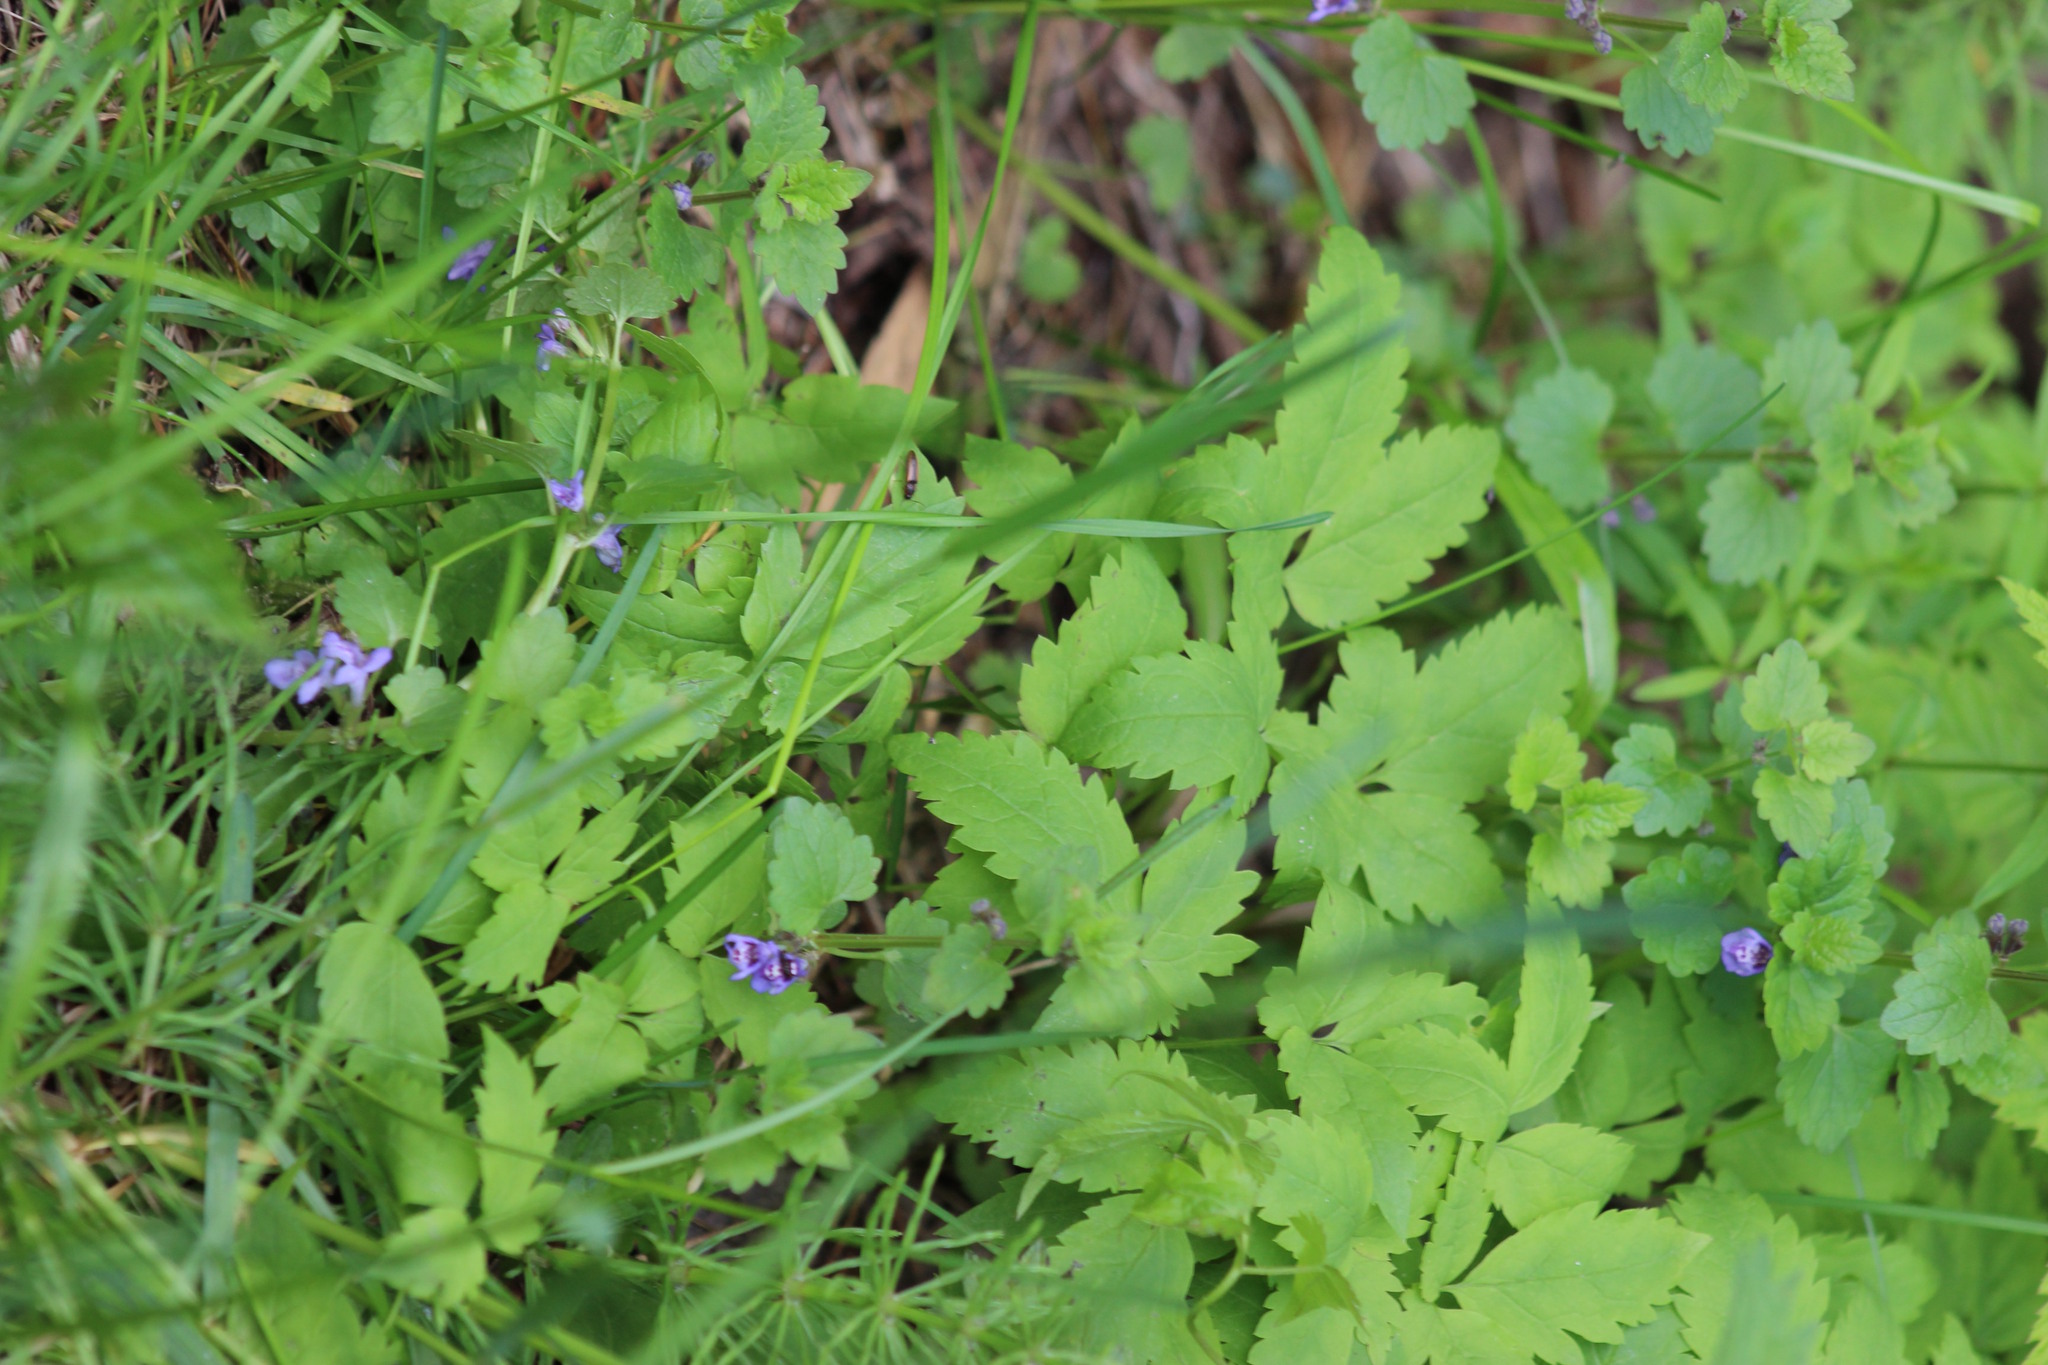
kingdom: Plantae
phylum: Tracheophyta
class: Magnoliopsida
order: Lamiales
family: Lamiaceae
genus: Glechoma
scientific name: Glechoma hederacea
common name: Ground ivy
